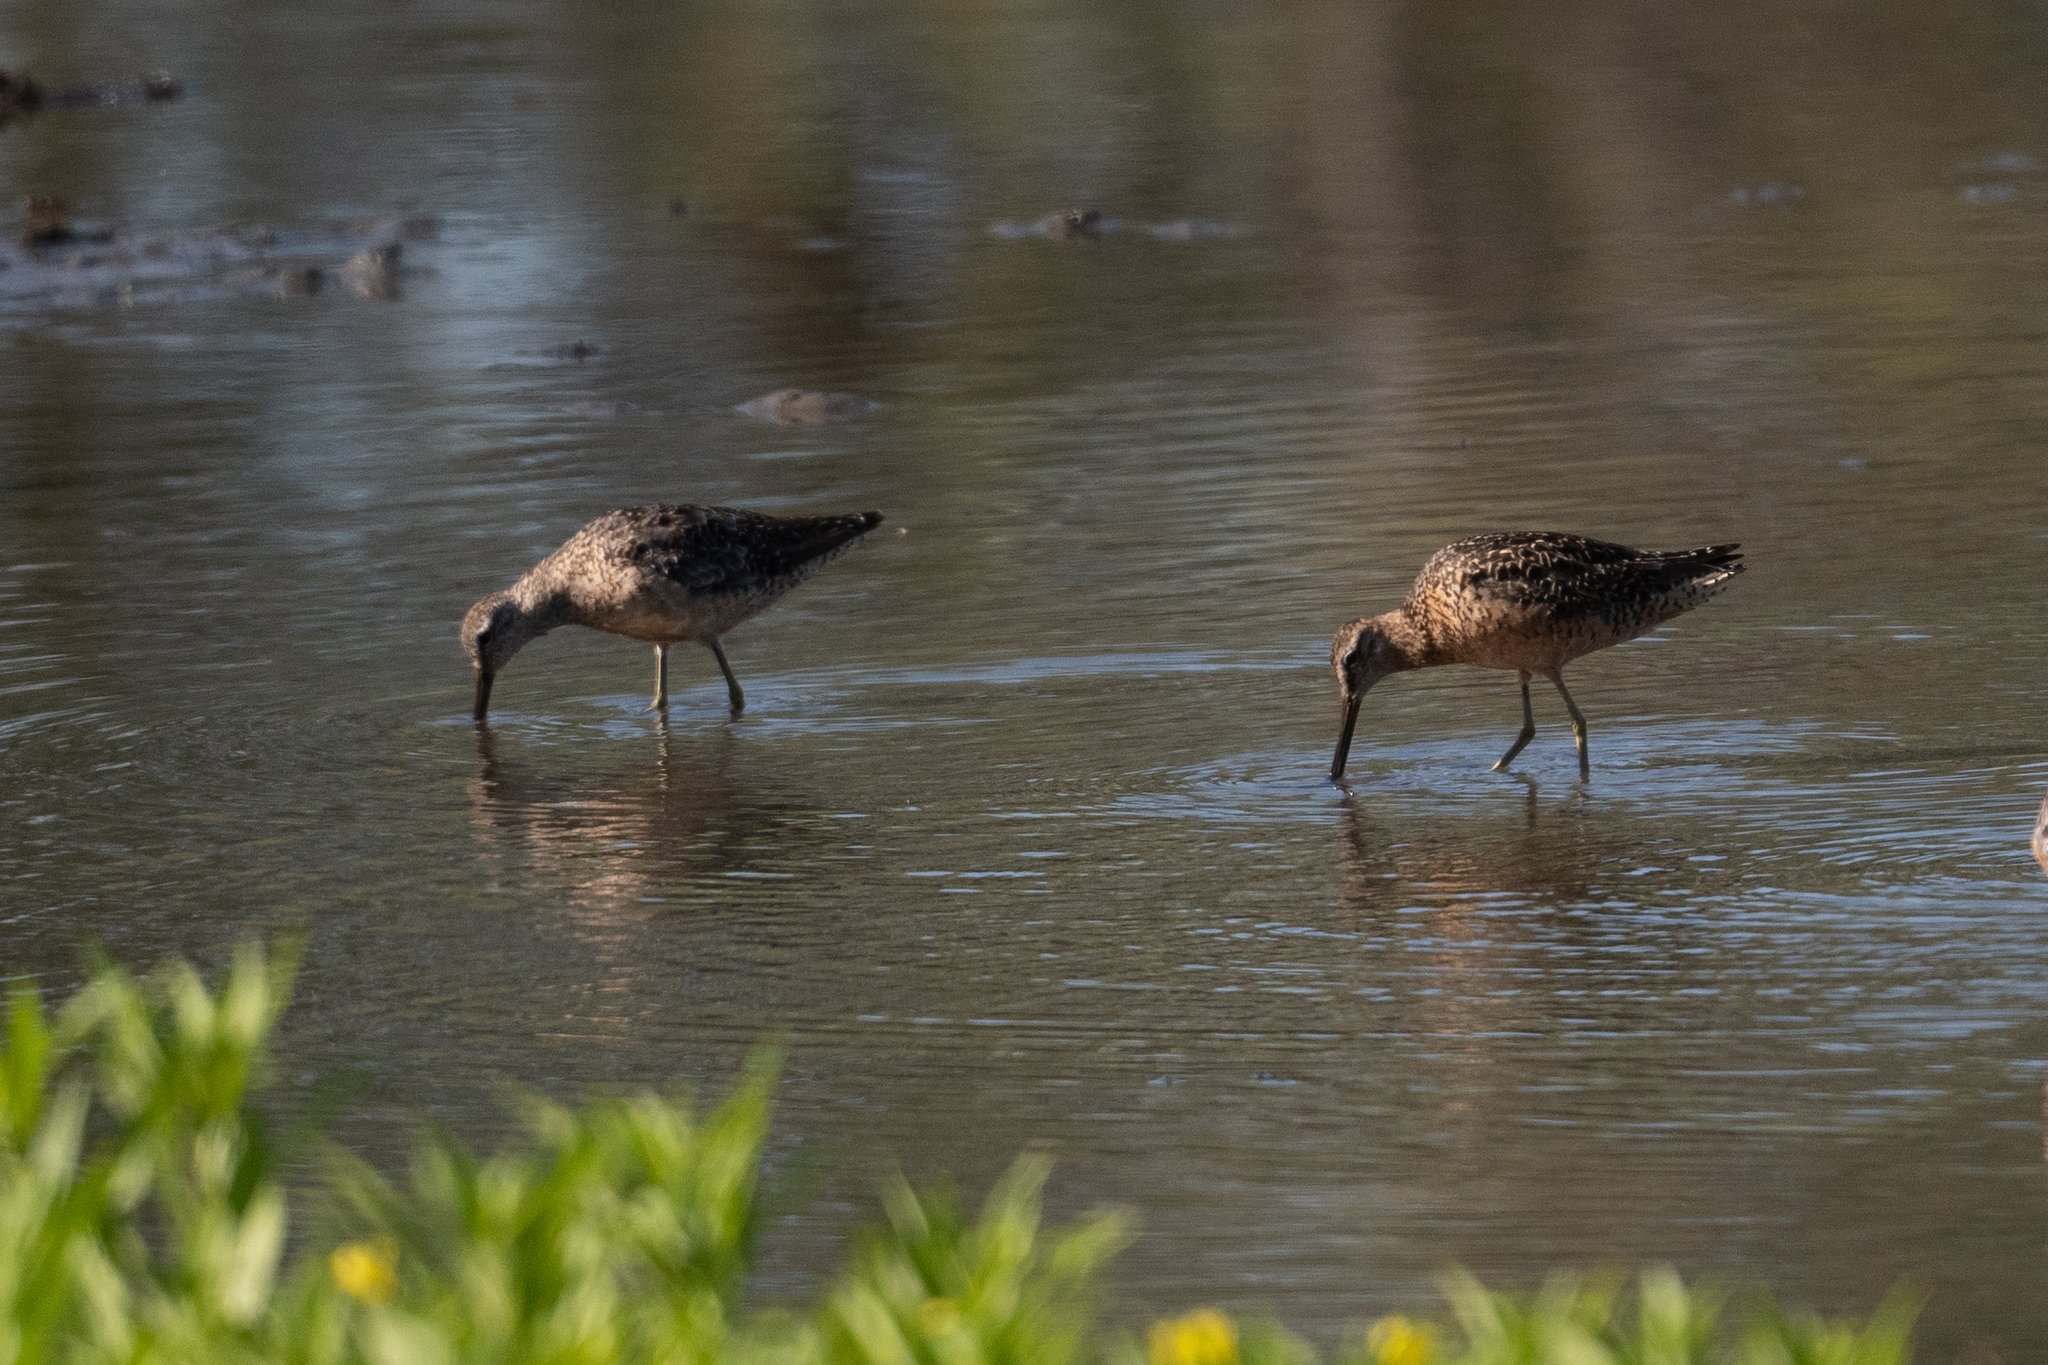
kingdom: Animalia
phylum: Chordata
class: Aves
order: Charadriiformes
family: Scolopacidae
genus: Limnodromus
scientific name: Limnodromus scolopaceus
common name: Long-billed dowitcher
